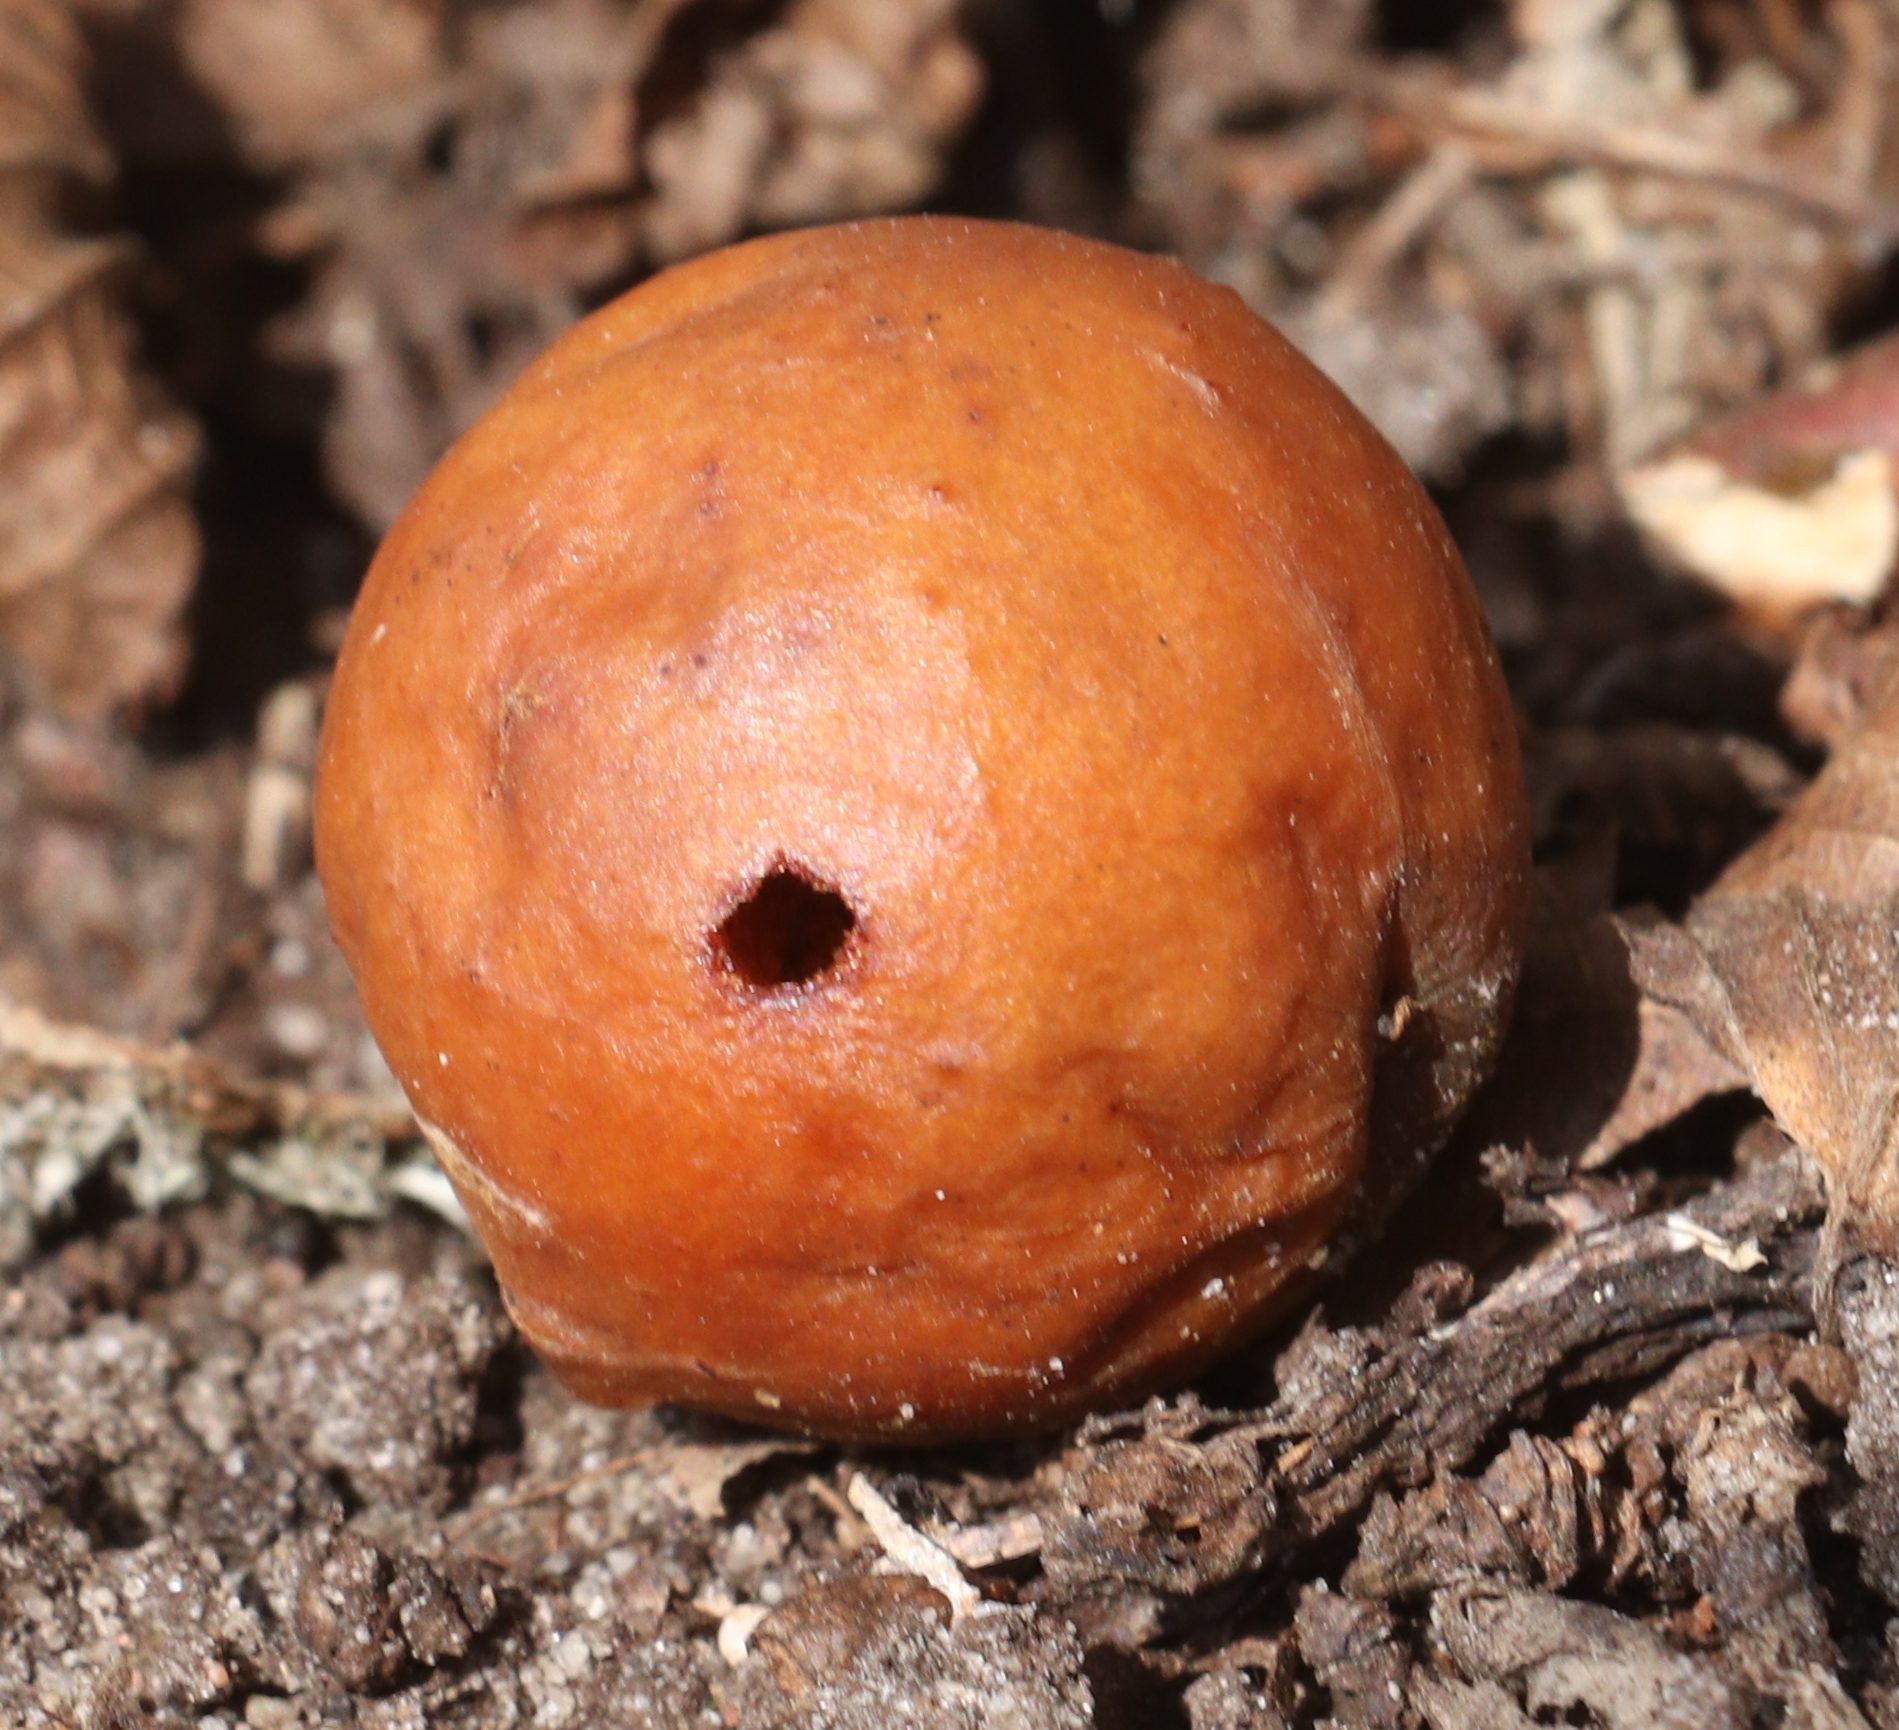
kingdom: Animalia
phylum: Arthropoda
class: Insecta
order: Hymenoptera
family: Cynipidae
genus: Cynips
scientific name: Cynips quercusfolii
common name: Cherry gall
